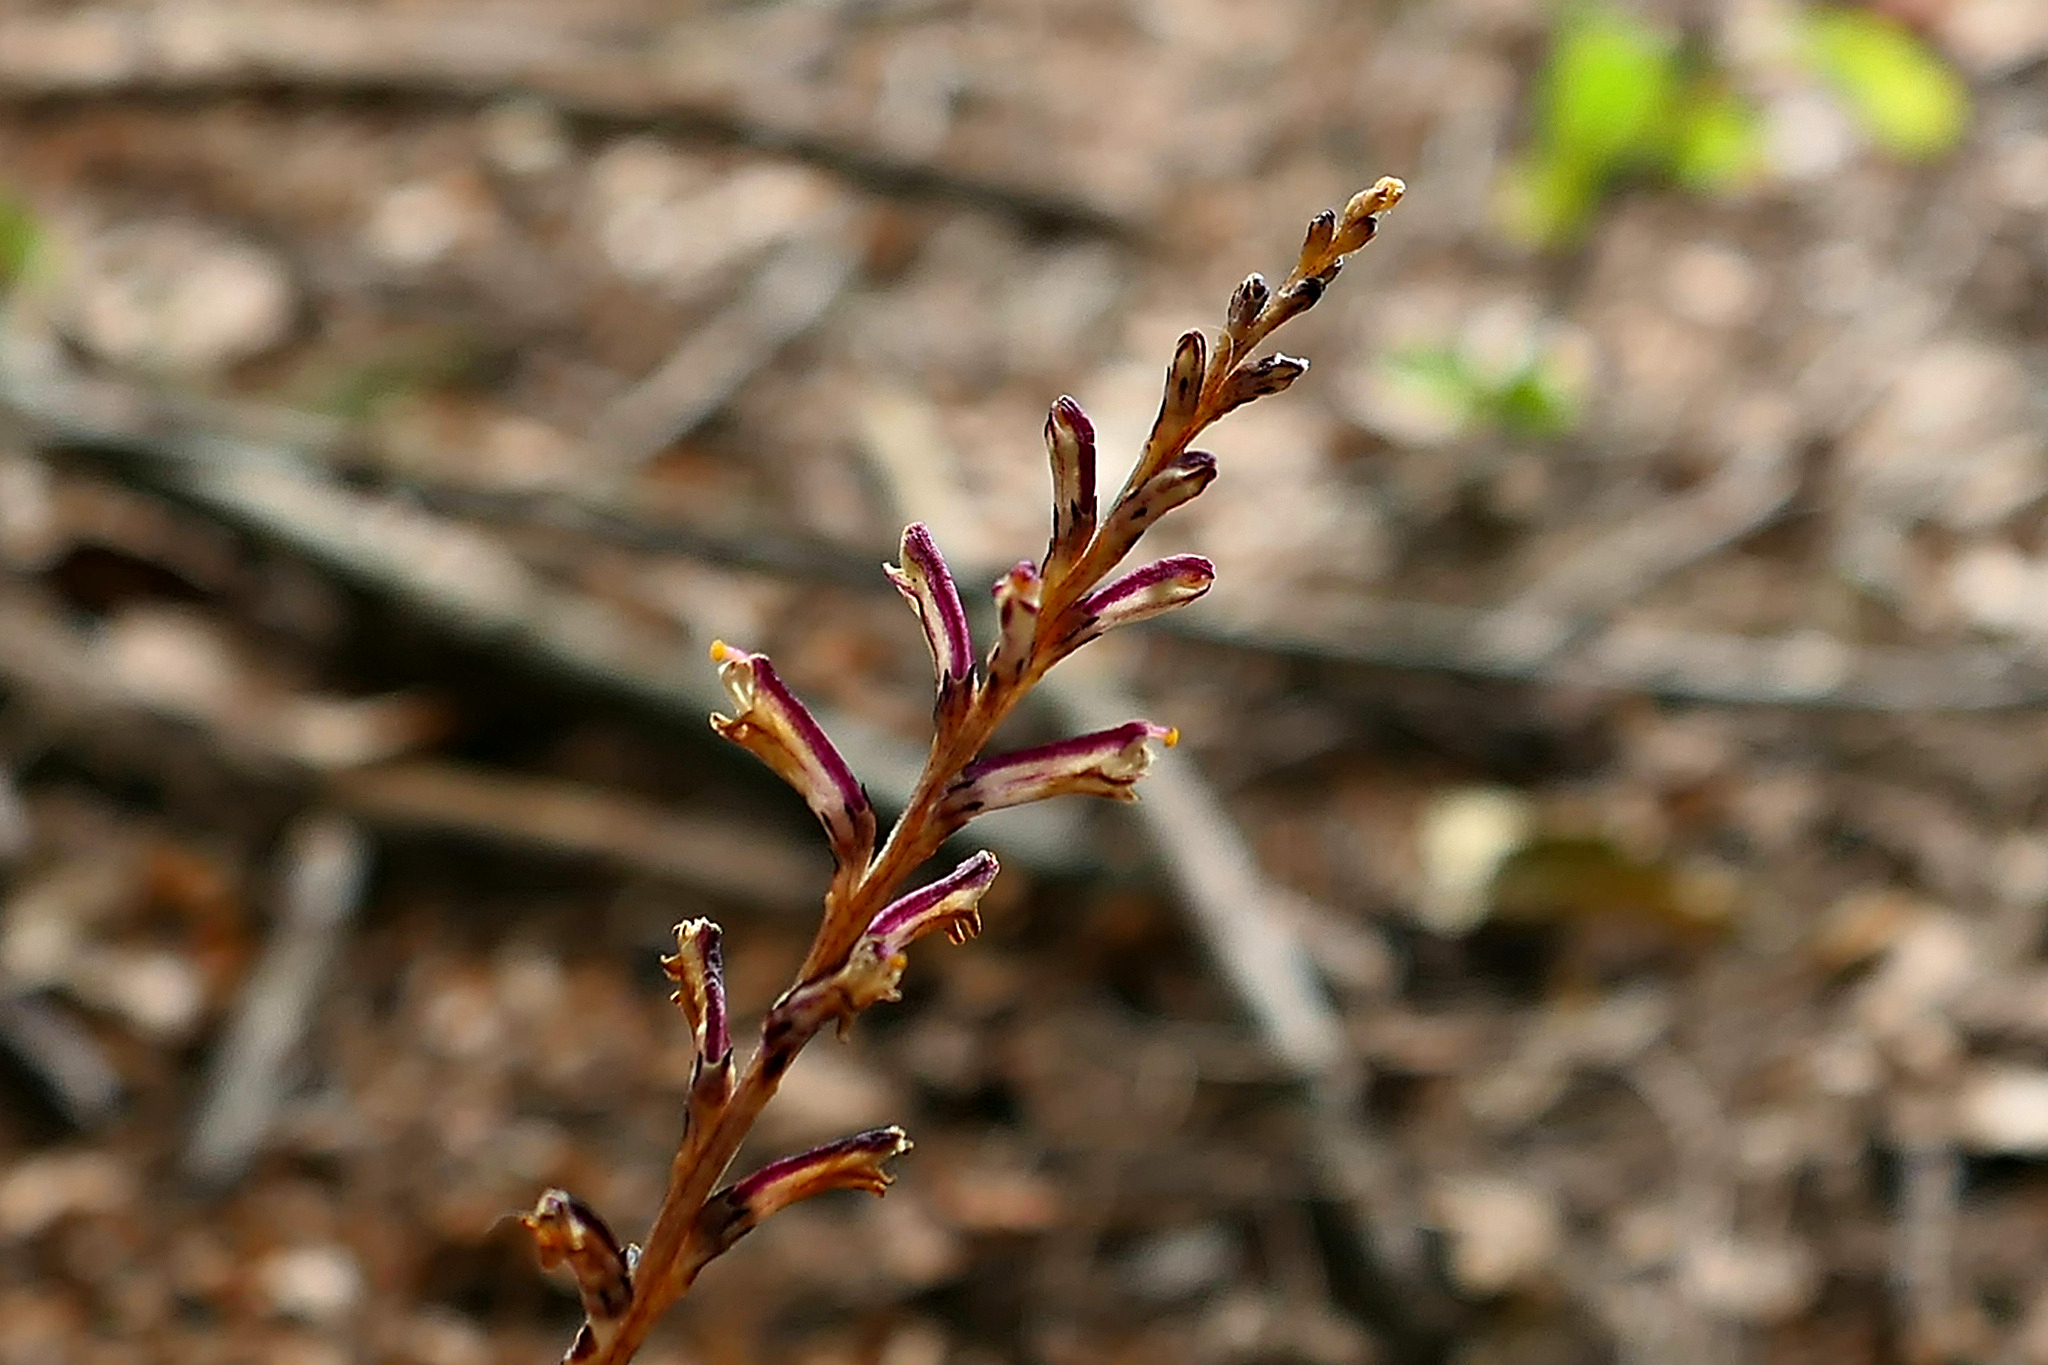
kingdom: Plantae
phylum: Tracheophyta
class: Magnoliopsida
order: Lamiales
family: Orobanchaceae
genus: Epifagus
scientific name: Epifagus virginiana
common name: Beechdrops
